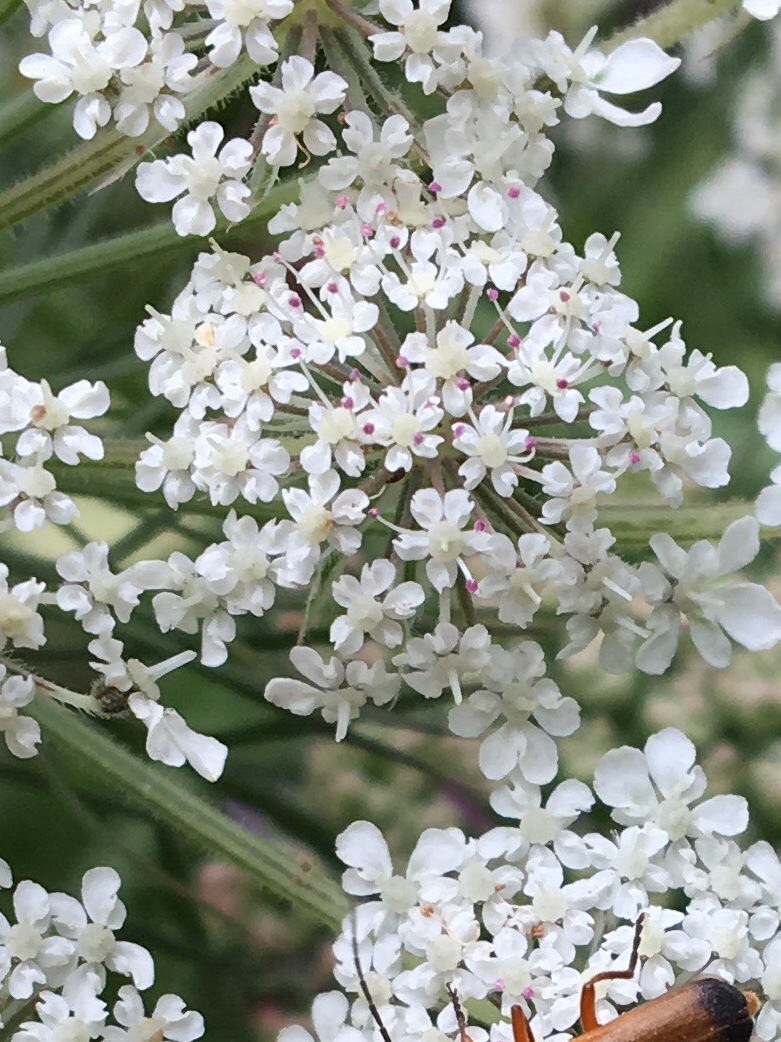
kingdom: Plantae
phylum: Tracheophyta
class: Magnoliopsida
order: Apiales
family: Apiaceae
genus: Daucus
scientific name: Daucus carota
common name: Wild carrot
